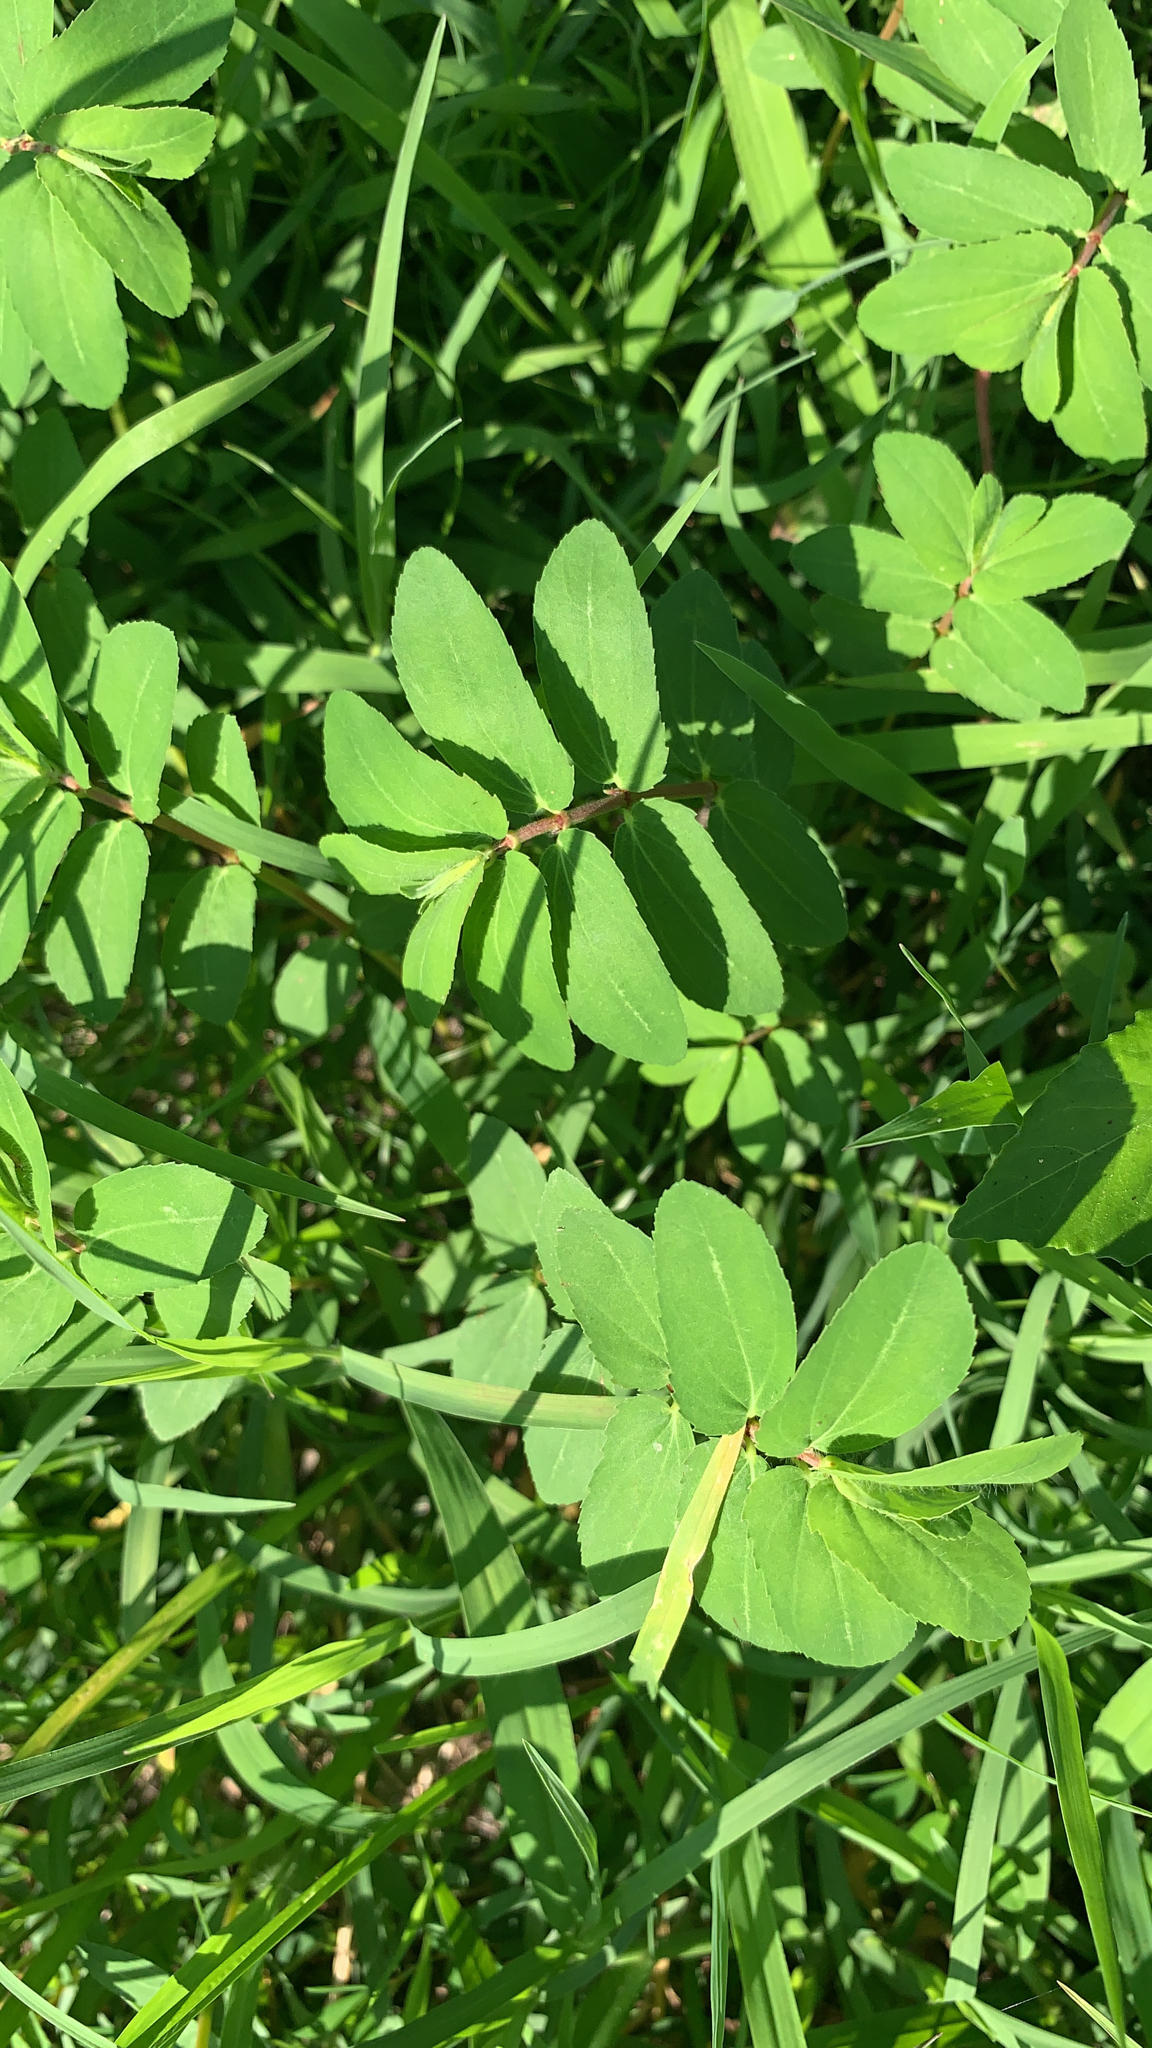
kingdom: Plantae
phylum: Tracheophyta
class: Magnoliopsida
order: Malpighiales
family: Euphorbiaceae
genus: Euphorbia
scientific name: Euphorbia nutans
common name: Eyebane
